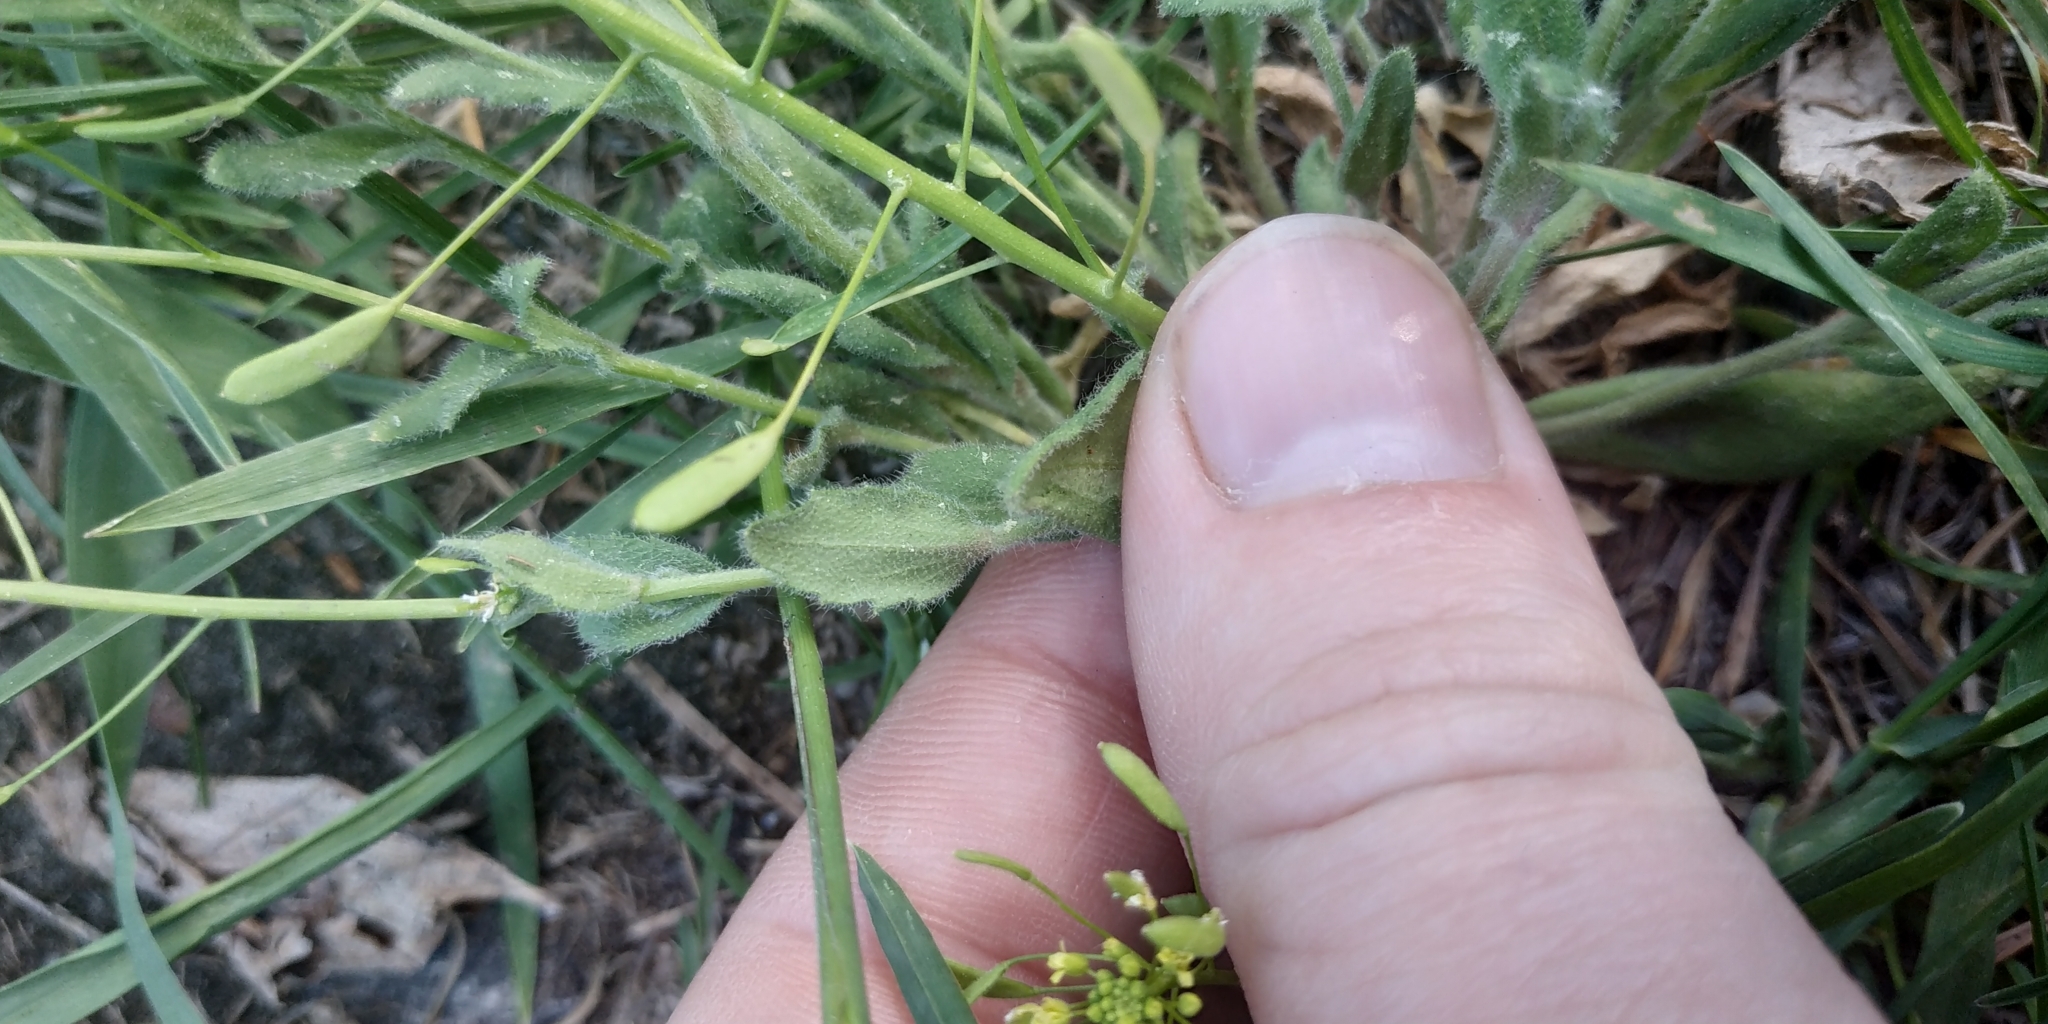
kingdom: Plantae
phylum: Tracheophyta
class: Magnoliopsida
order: Brassicales
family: Brassicaceae
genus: Draba
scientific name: Draba nemorosa
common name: Wood whitlow-grass
